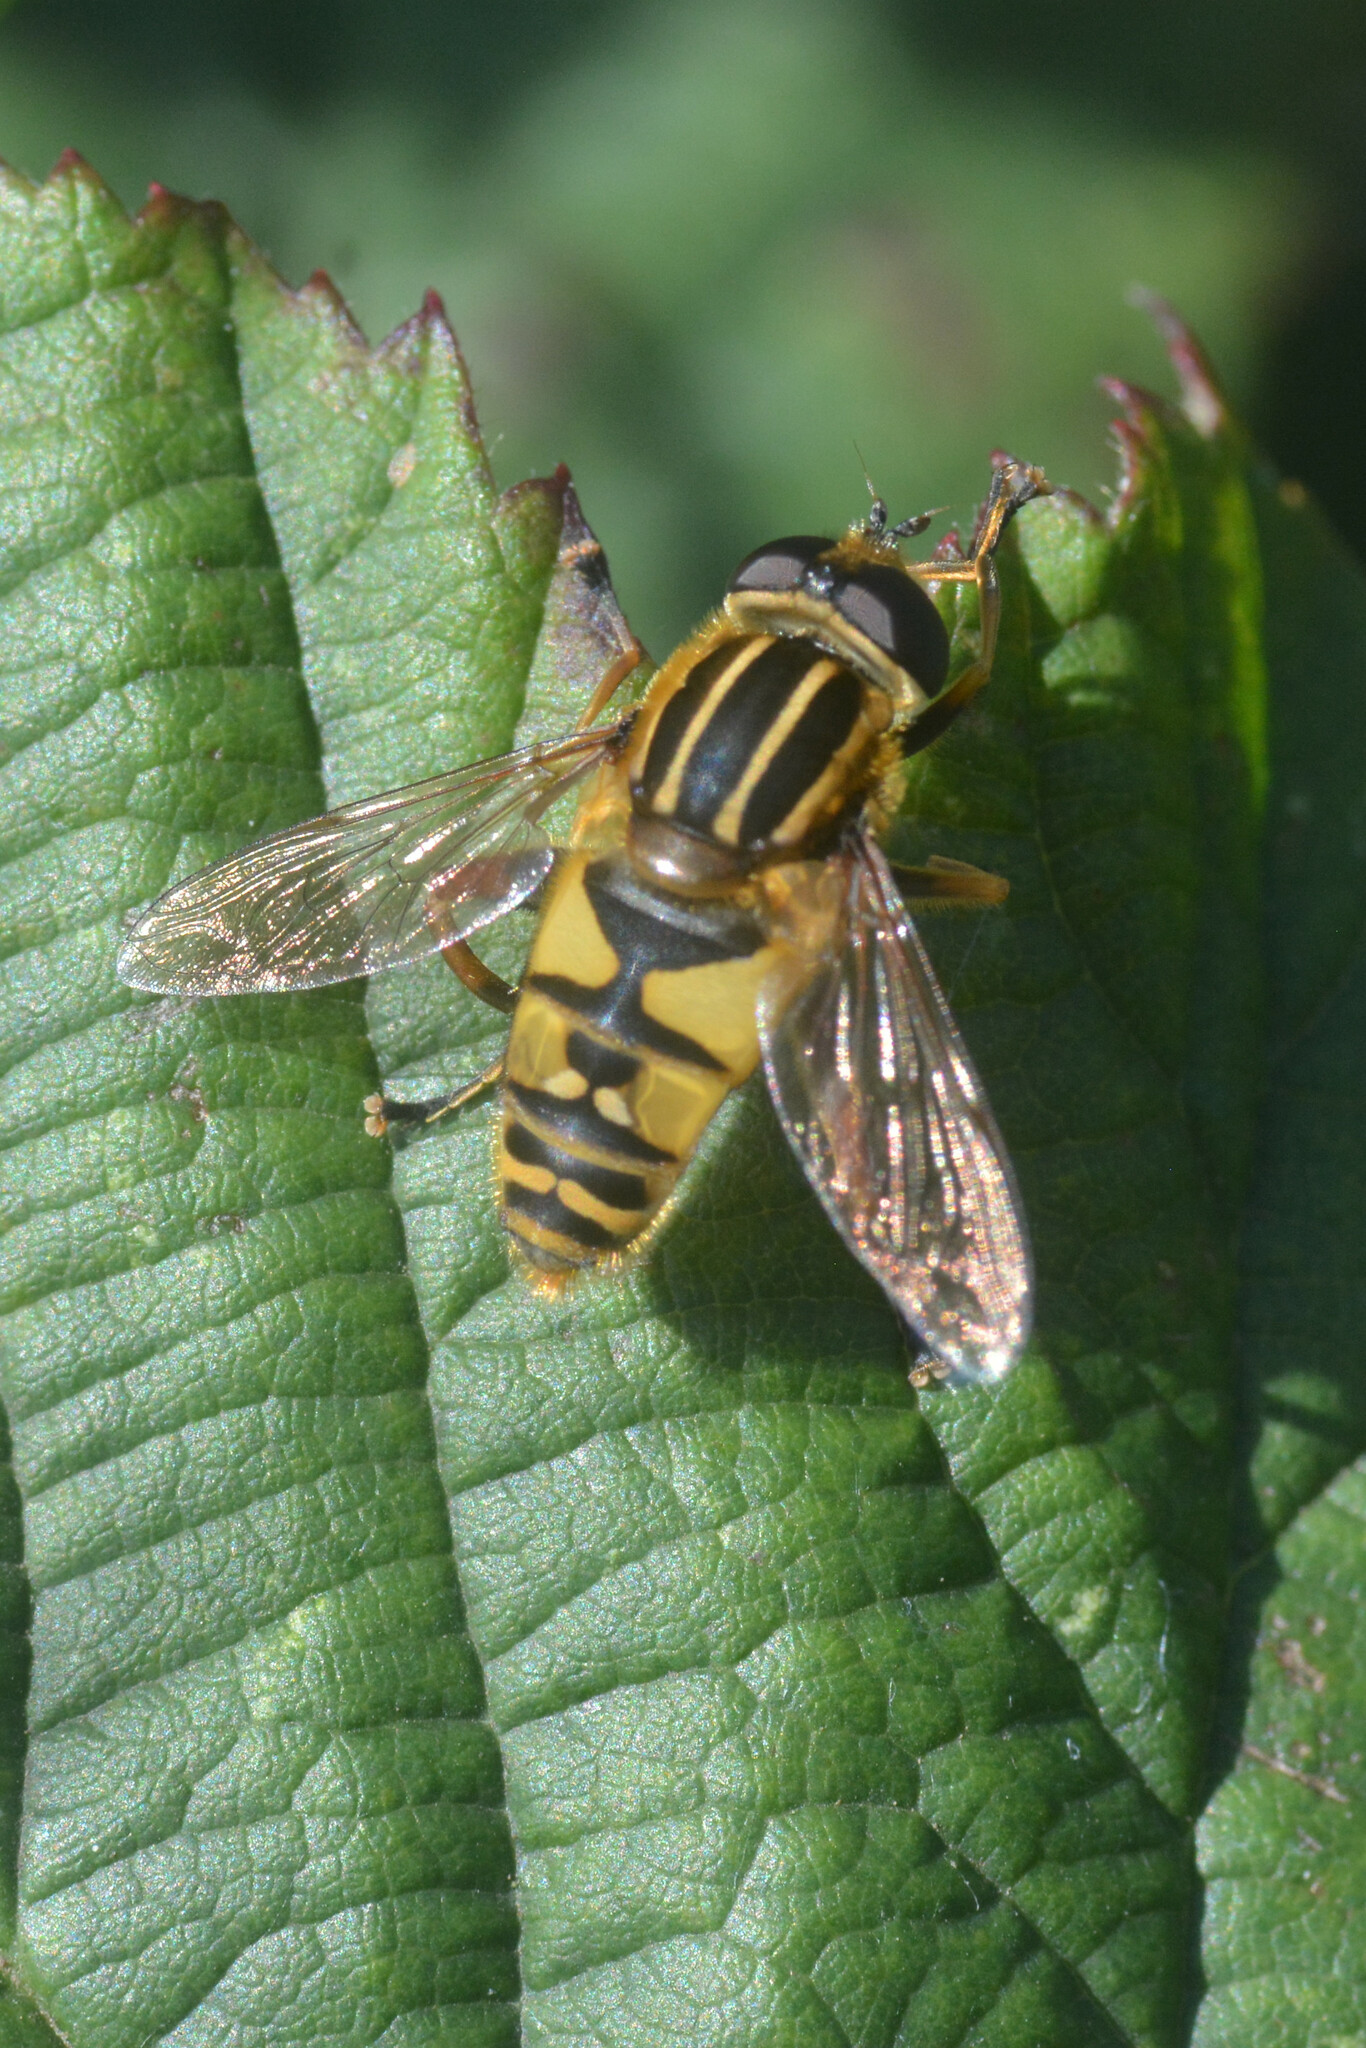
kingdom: Animalia
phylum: Arthropoda
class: Insecta
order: Diptera
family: Syrphidae
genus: Helophilus
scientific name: Helophilus pendulus
